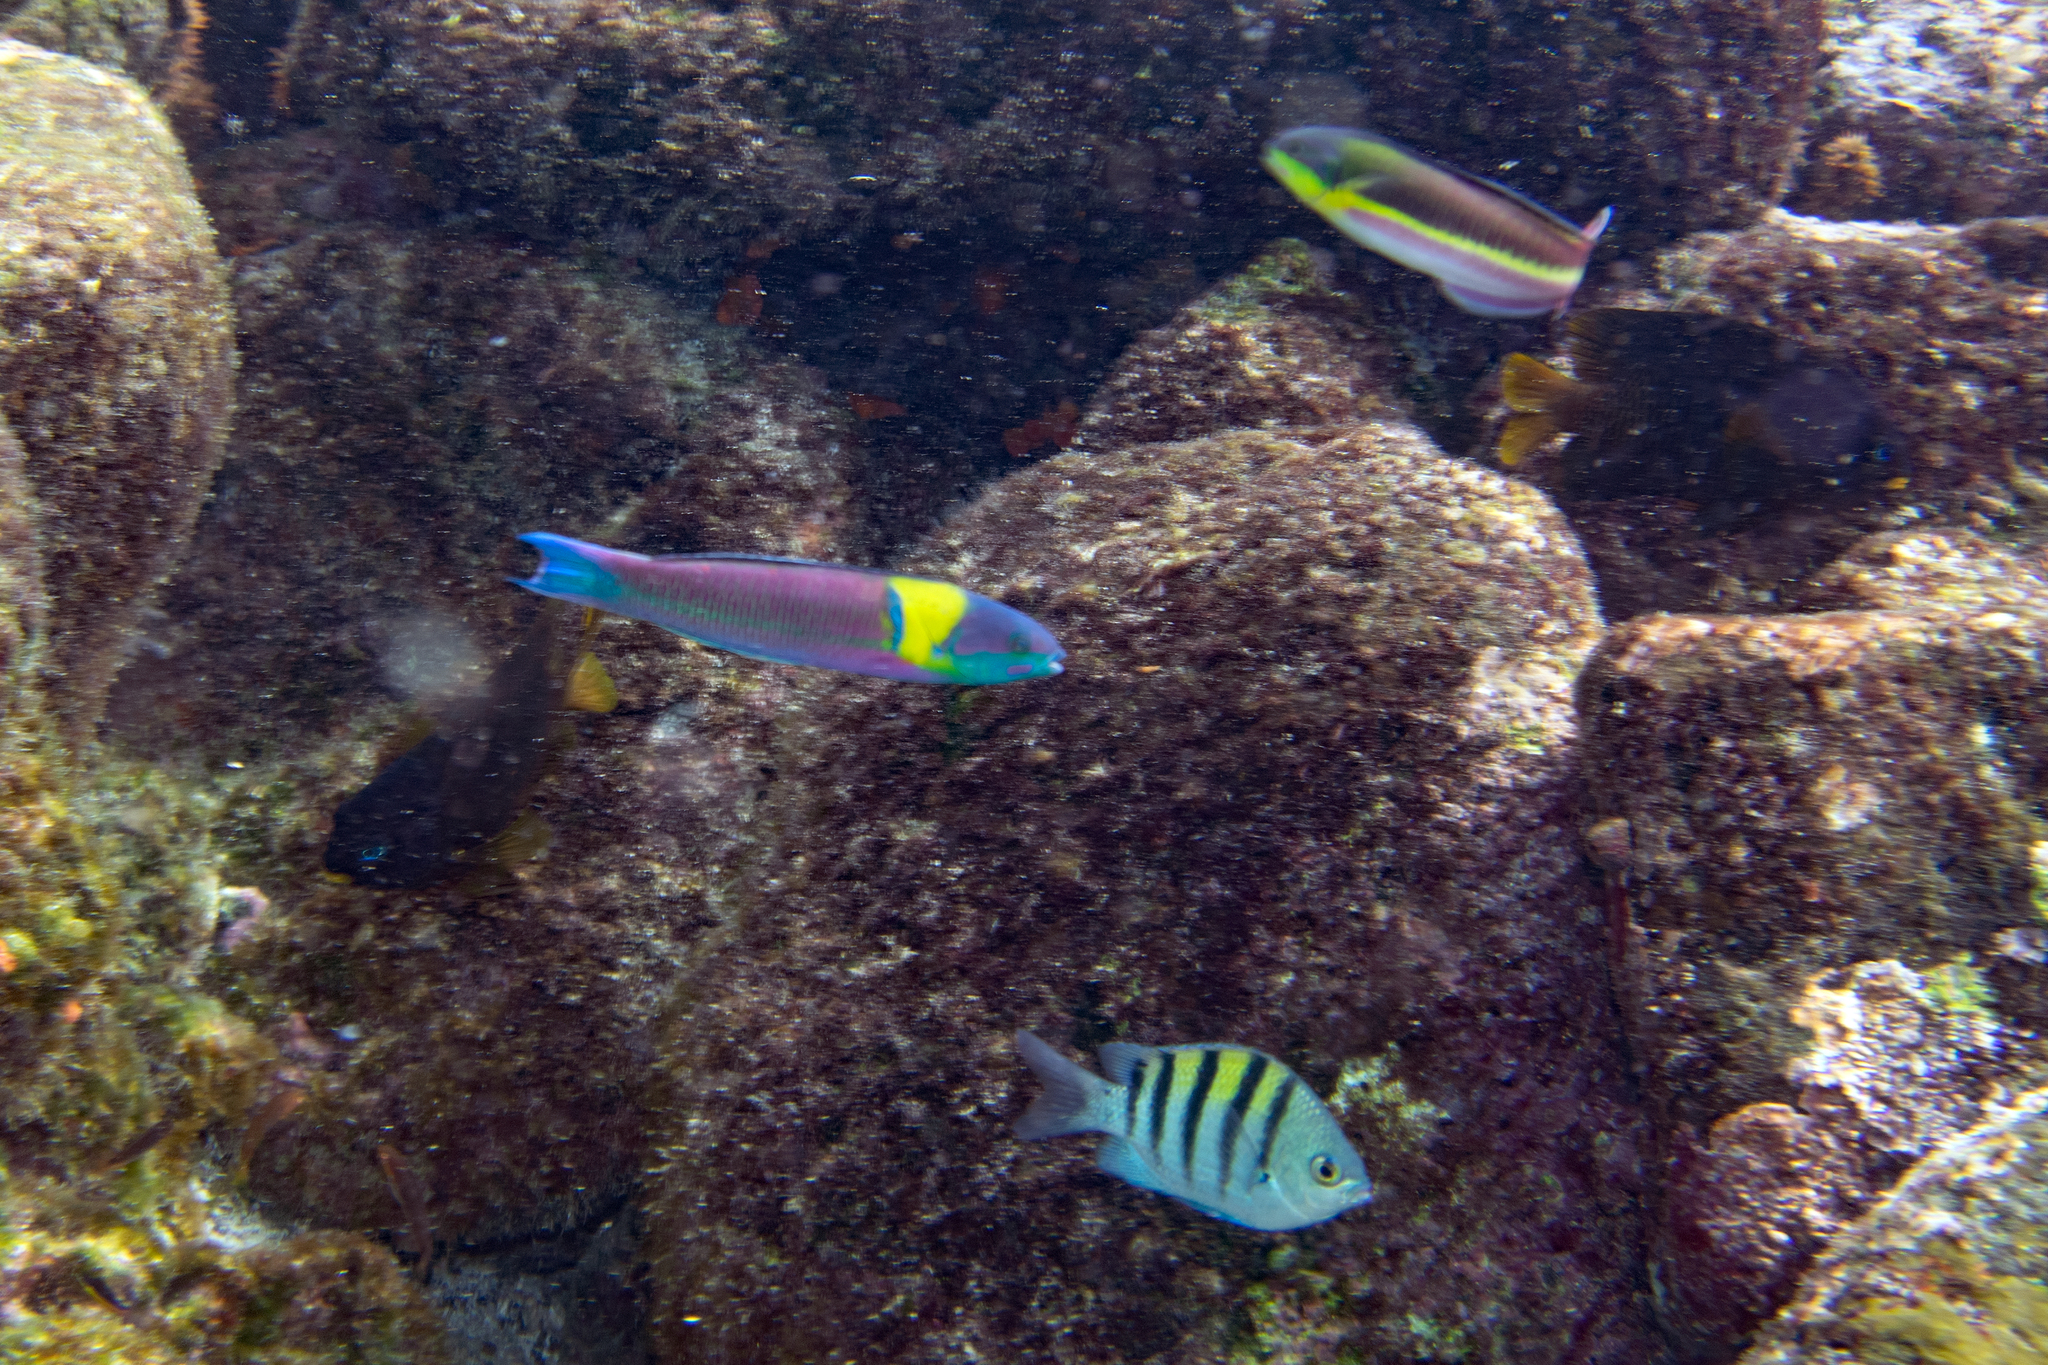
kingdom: Animalia
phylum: Chordata
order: Perciformes
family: Pomacentridae
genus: Abudefduf
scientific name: Abudefduf troschelii
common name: Panamic sergeant major
